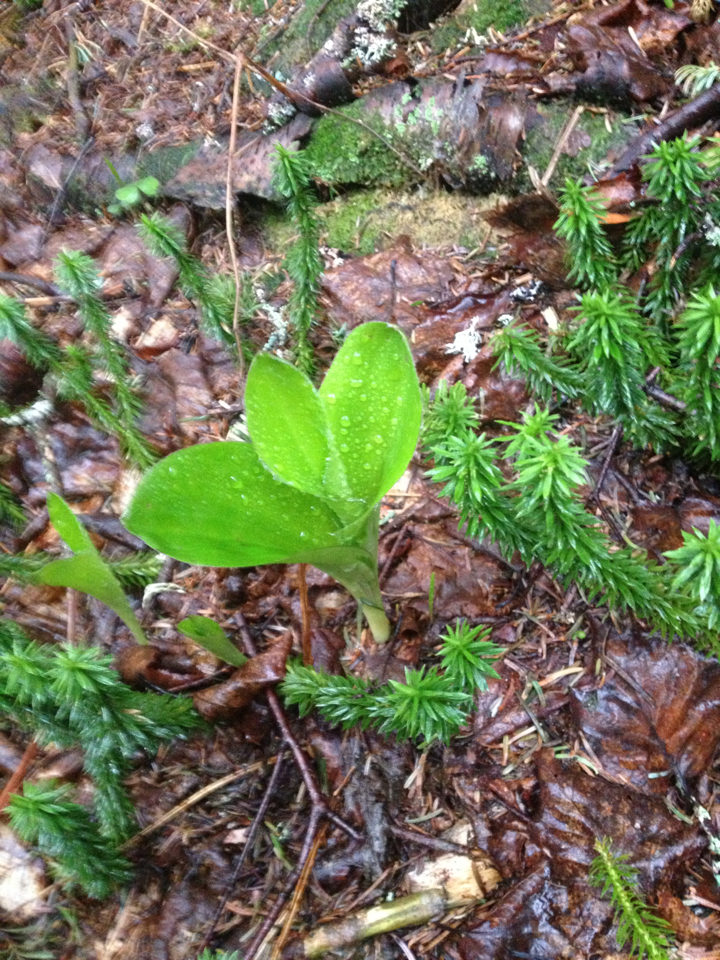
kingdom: Plantae
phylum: Tracheophyta
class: Liliopsida
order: Liliales
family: Liliaceae
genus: Clintonia
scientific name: Clintonia borealis
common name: Yellow clintonia
